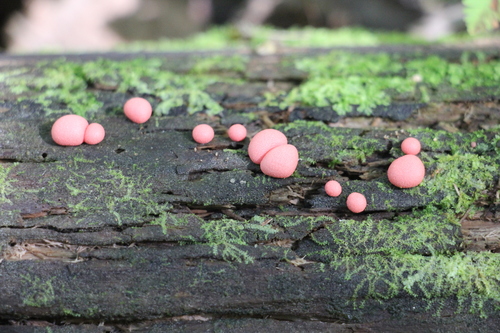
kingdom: Protozoa
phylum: Mycetozoa
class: Myxomycetes
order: Cribrariales
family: Tubiferaceae
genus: Lycogala
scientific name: Lycogala epidendrum
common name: Wolf's milk
